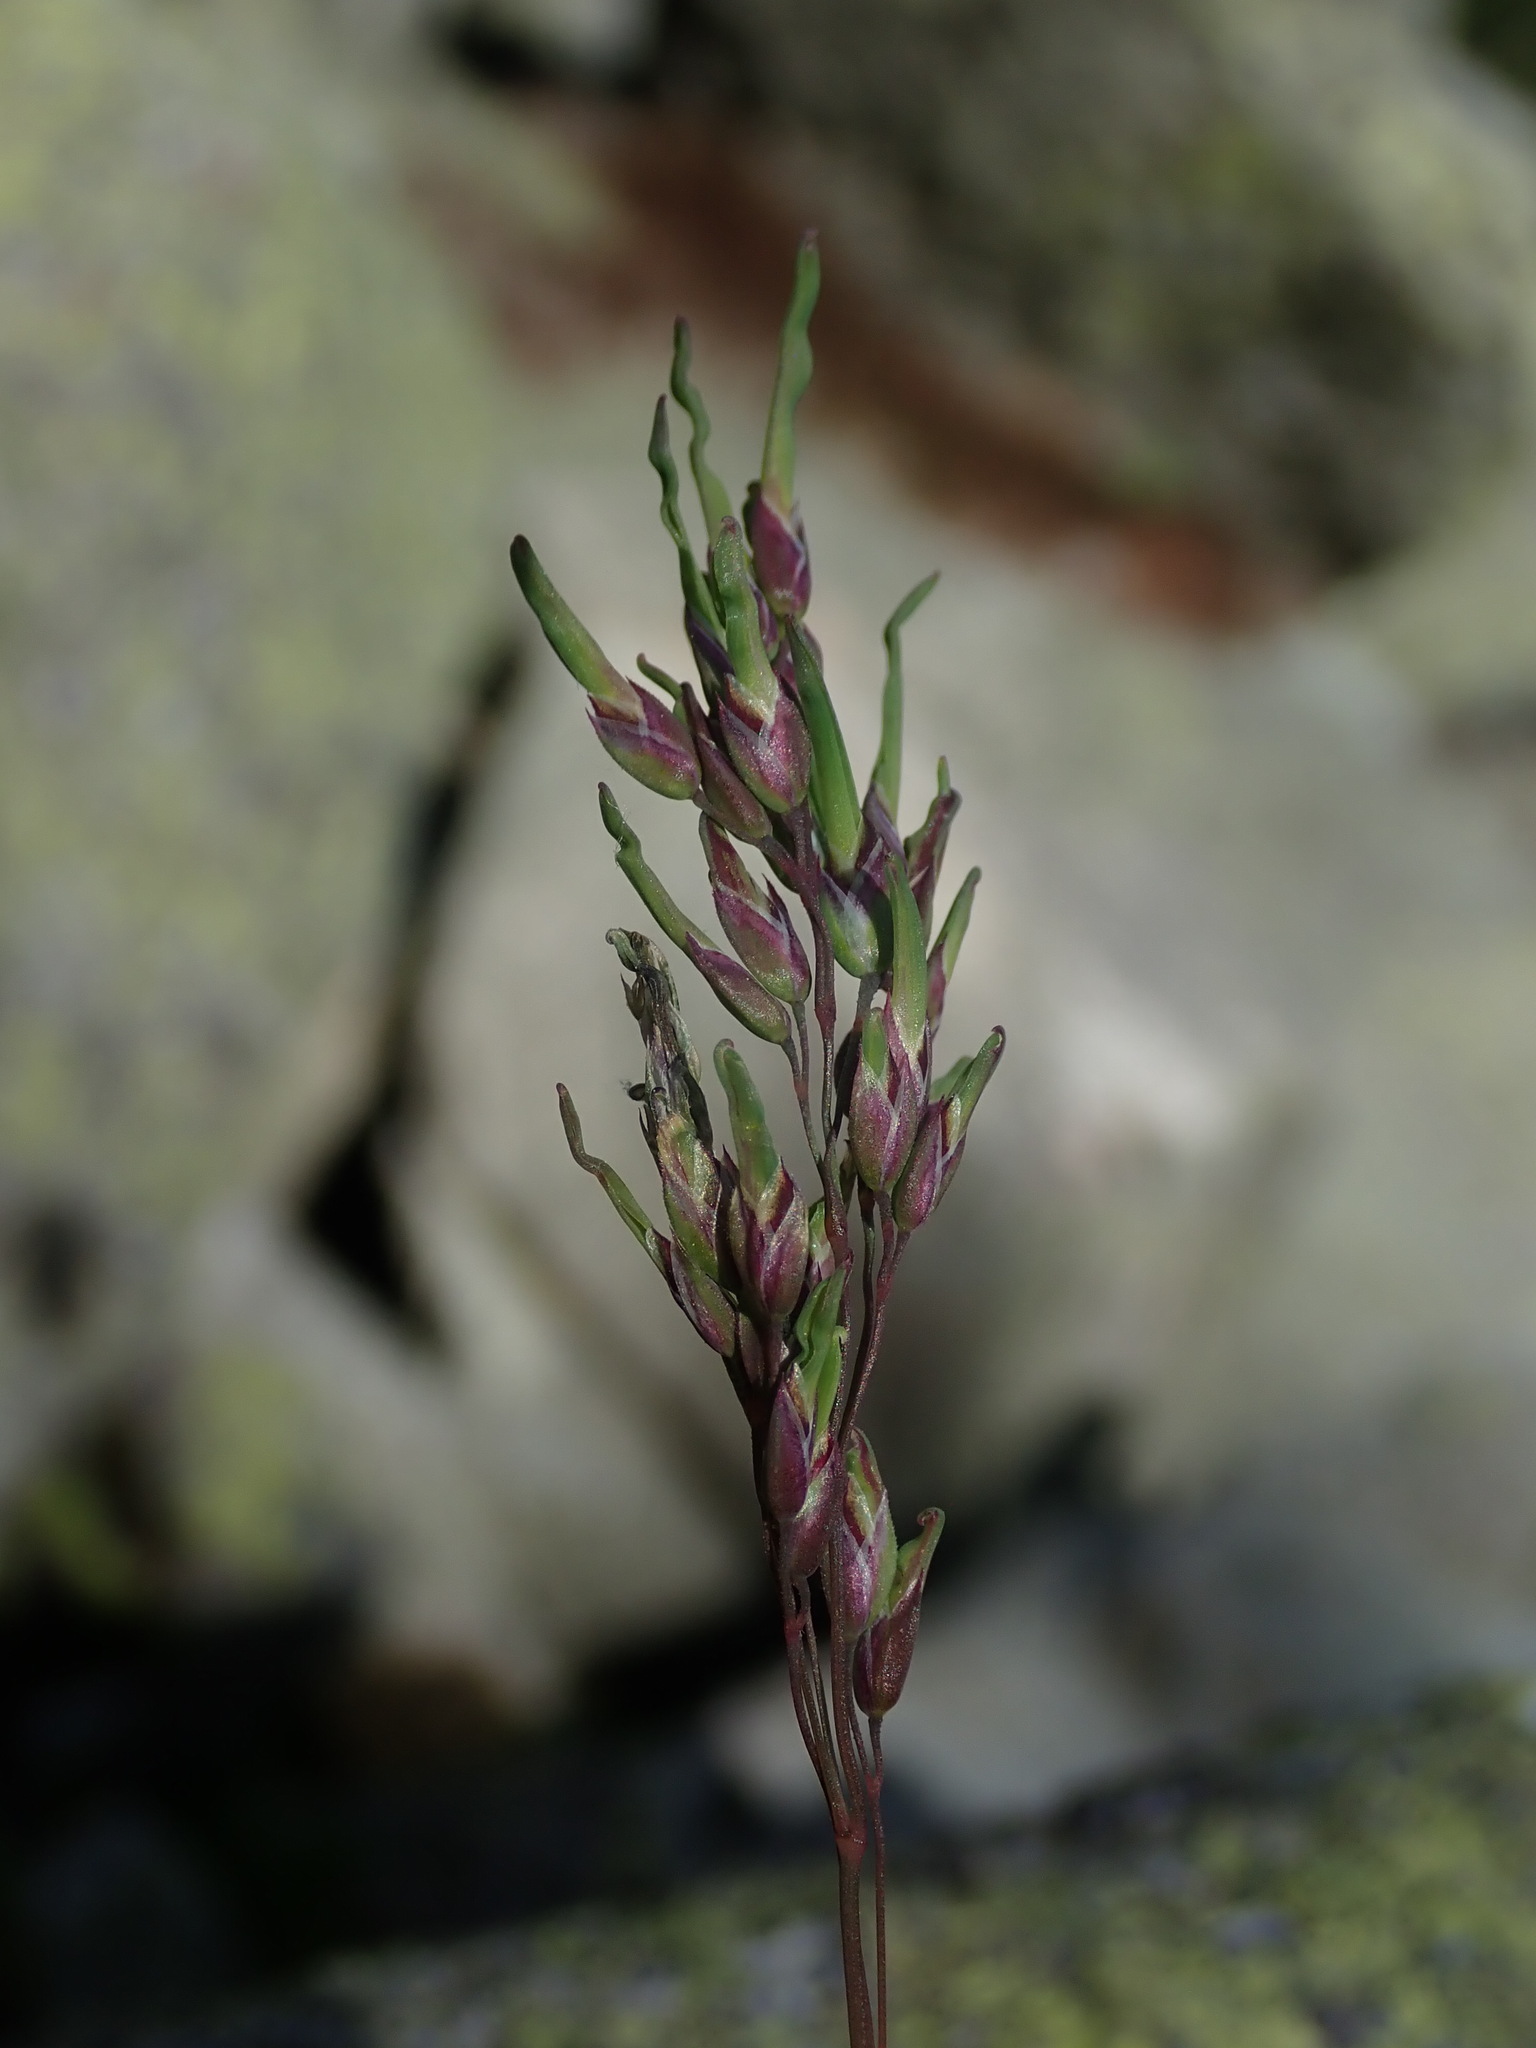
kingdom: Plantae
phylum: Tracheophyta
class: Liliopsida
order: Poales
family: Poaceae
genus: Poa
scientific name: Poa alpina
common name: Alpine bluegrass
